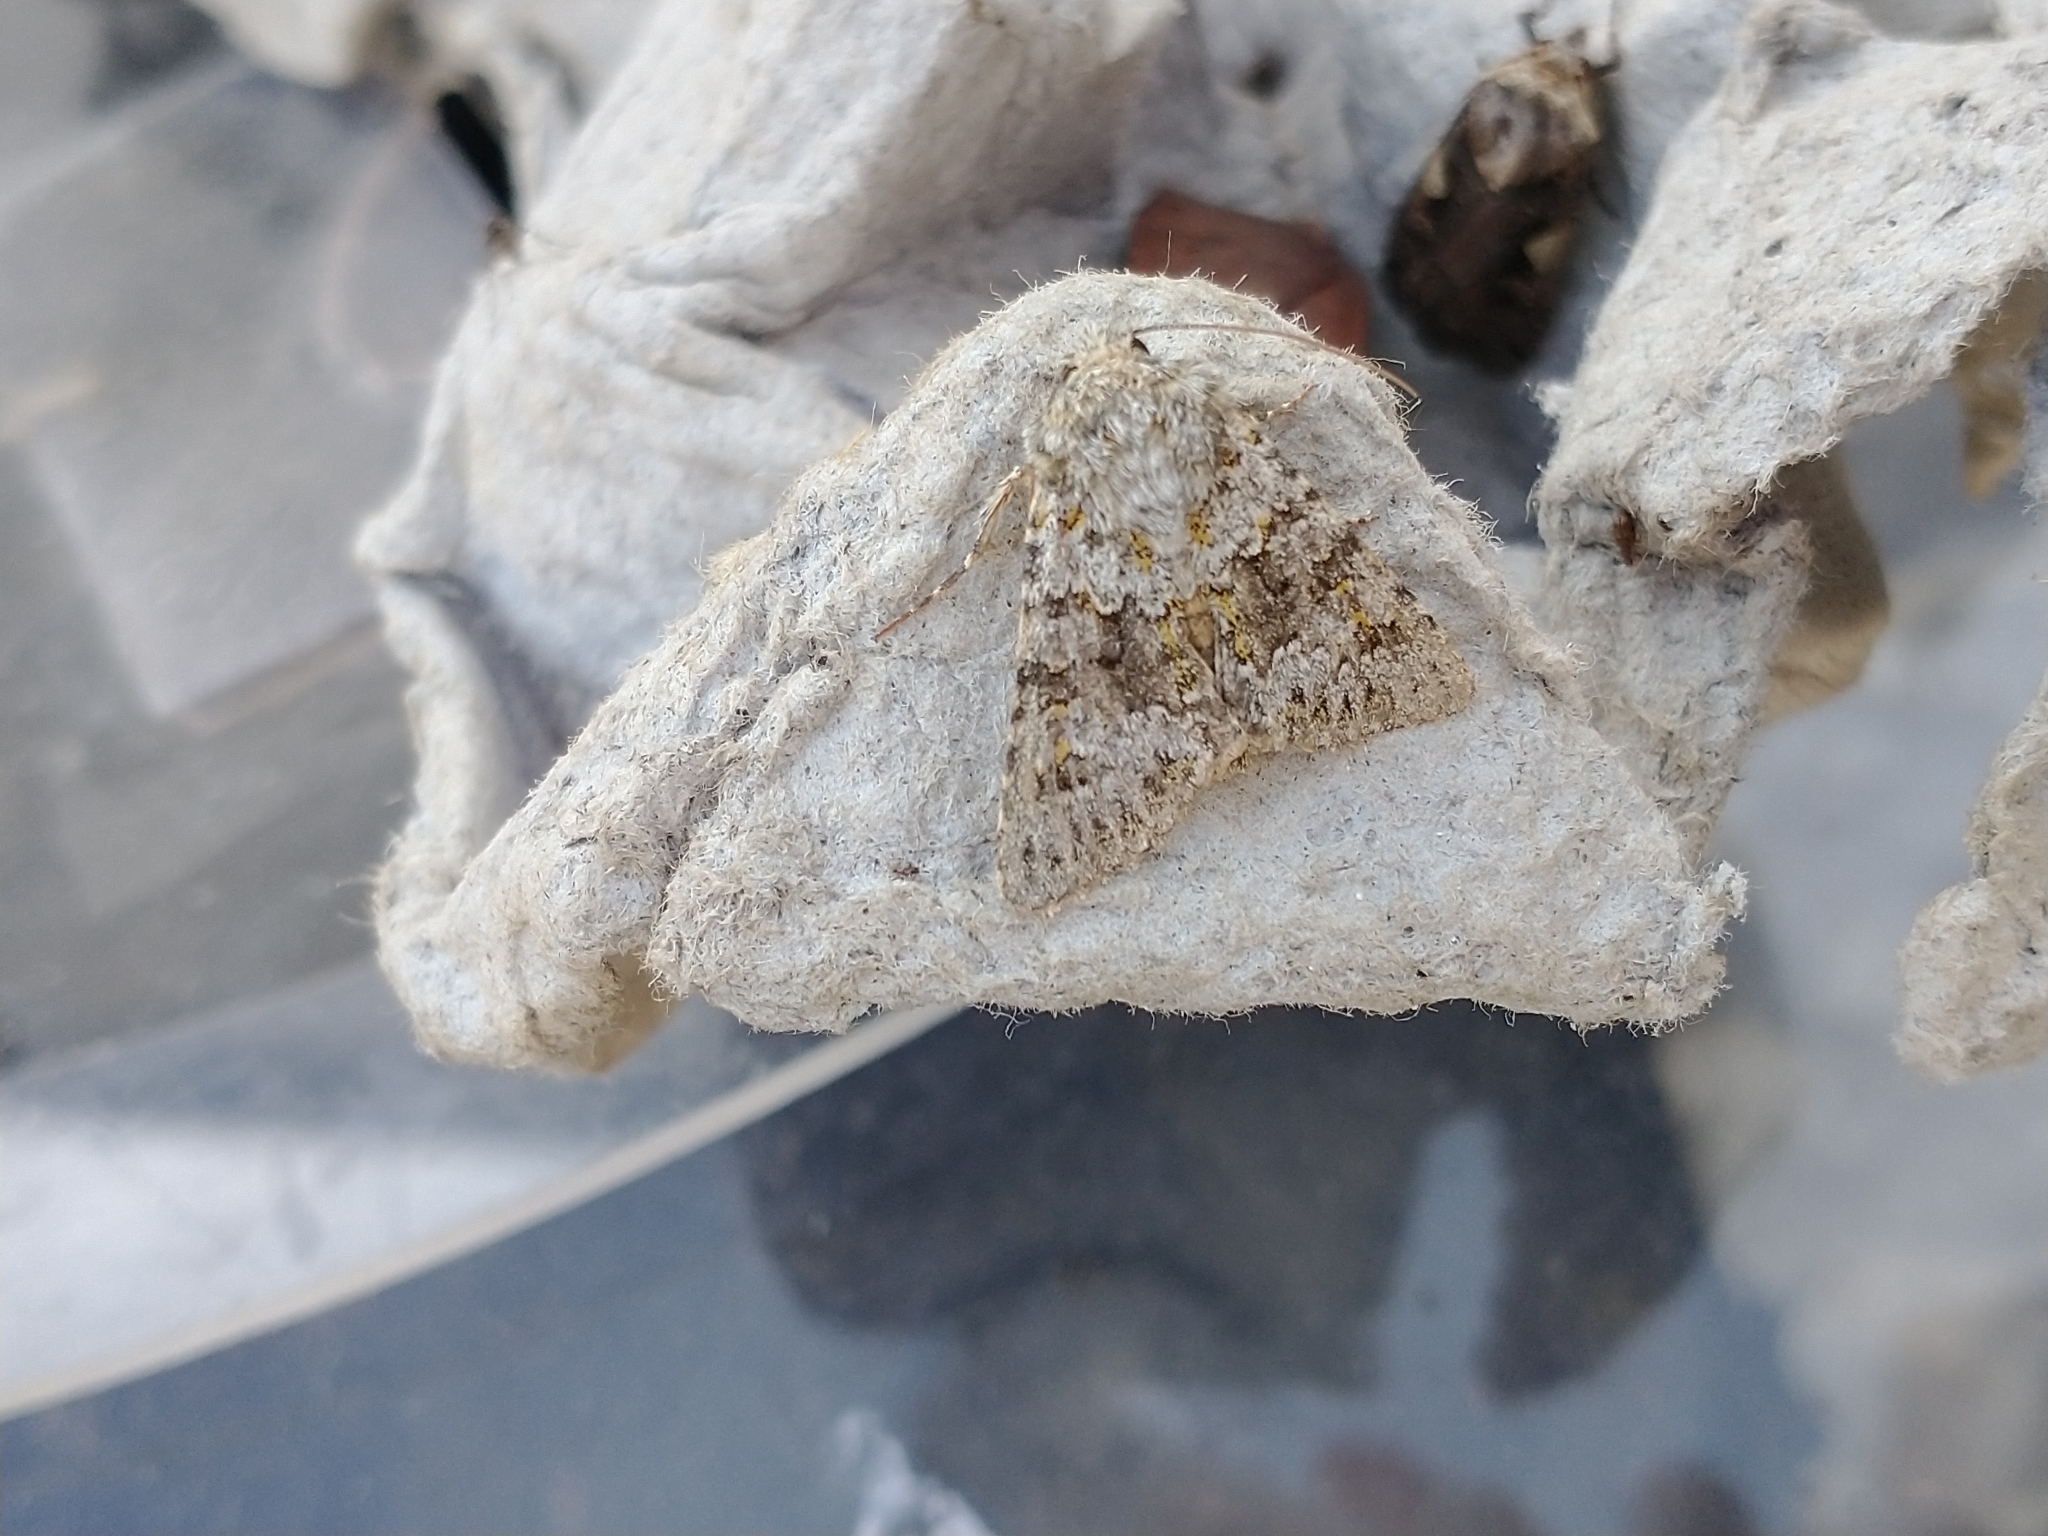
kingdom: Animalia
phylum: Arthropoda
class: Insecta
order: Lepidoptera
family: Noctuidae
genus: Hecatera
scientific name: Hecatera dysodea
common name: Small ranunculus
